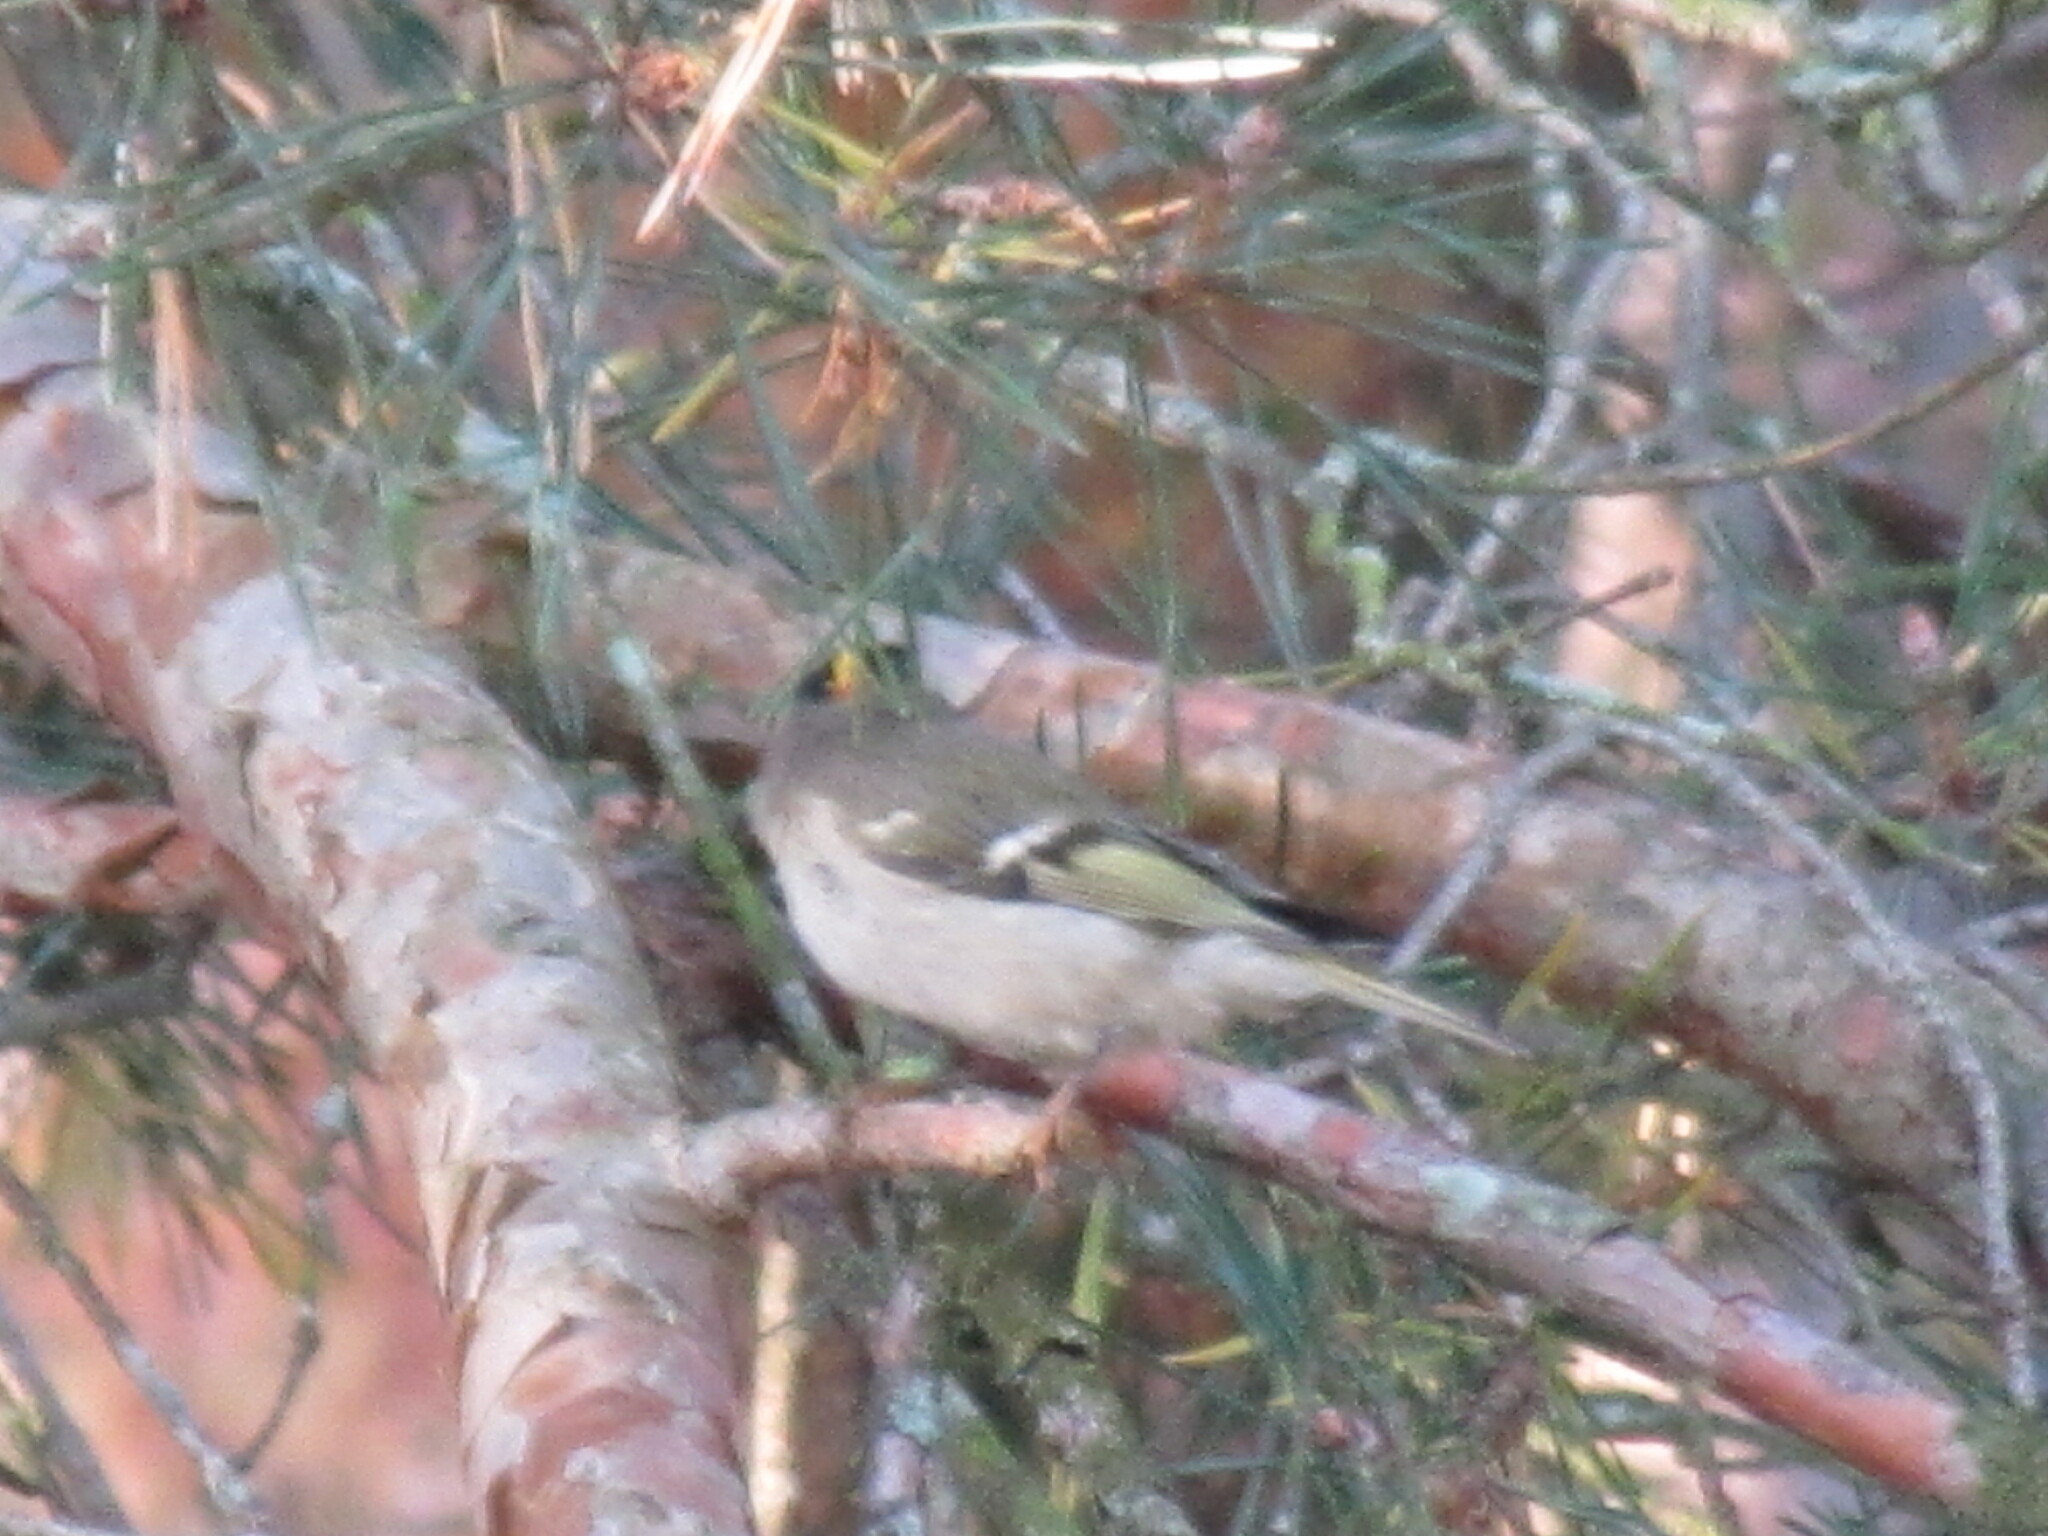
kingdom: Animalia
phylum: Chordata
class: Aves
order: Passeriformes
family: Regulidae
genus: Regulus
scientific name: Regulus satrapa
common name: Golden-crowned kinglet
